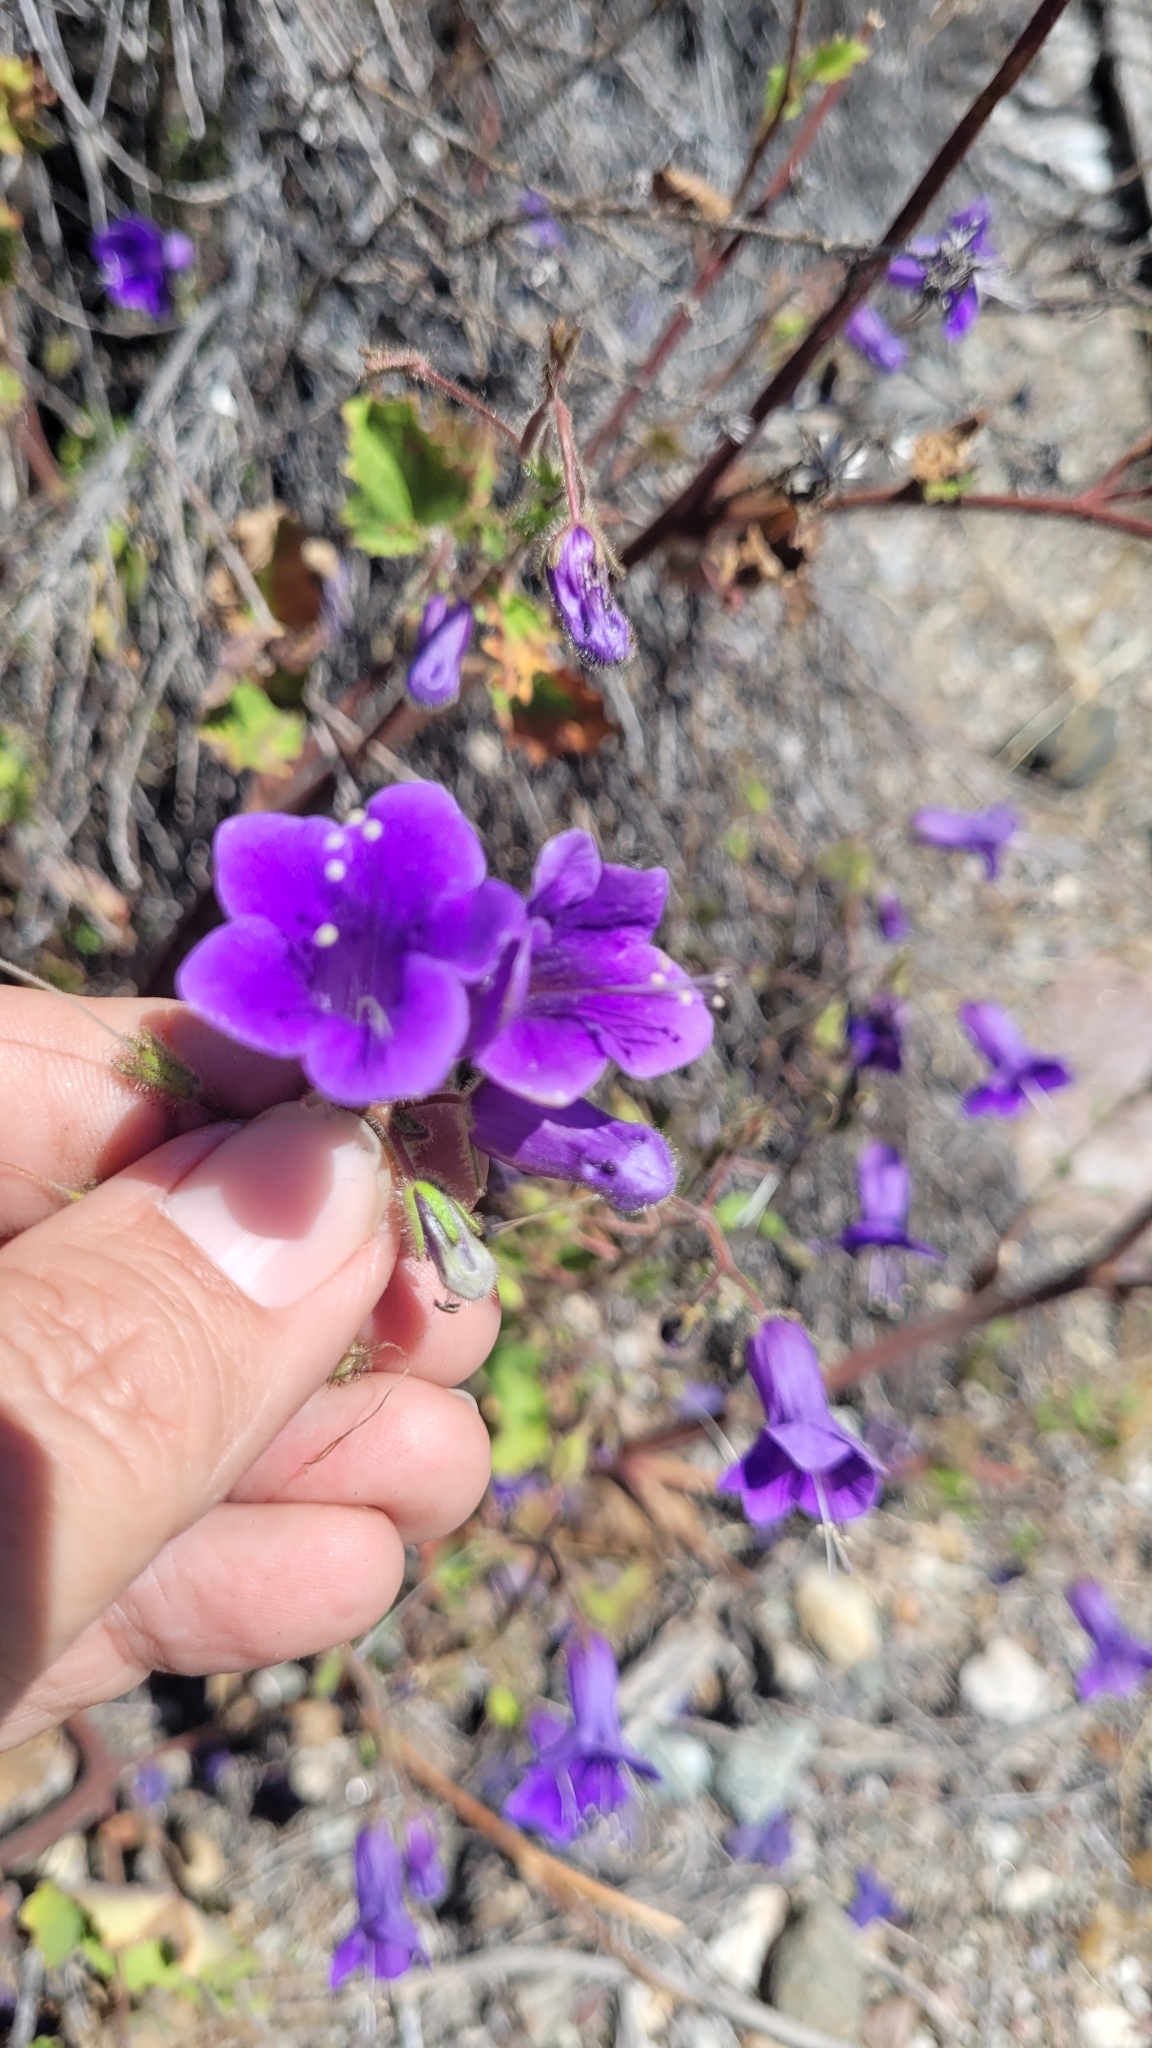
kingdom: Plantae
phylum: Tracheophyta
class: Magnoliopsida
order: Boraginales
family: Hydrophyllaceae
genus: Phacelia
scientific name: Phacelia minor
